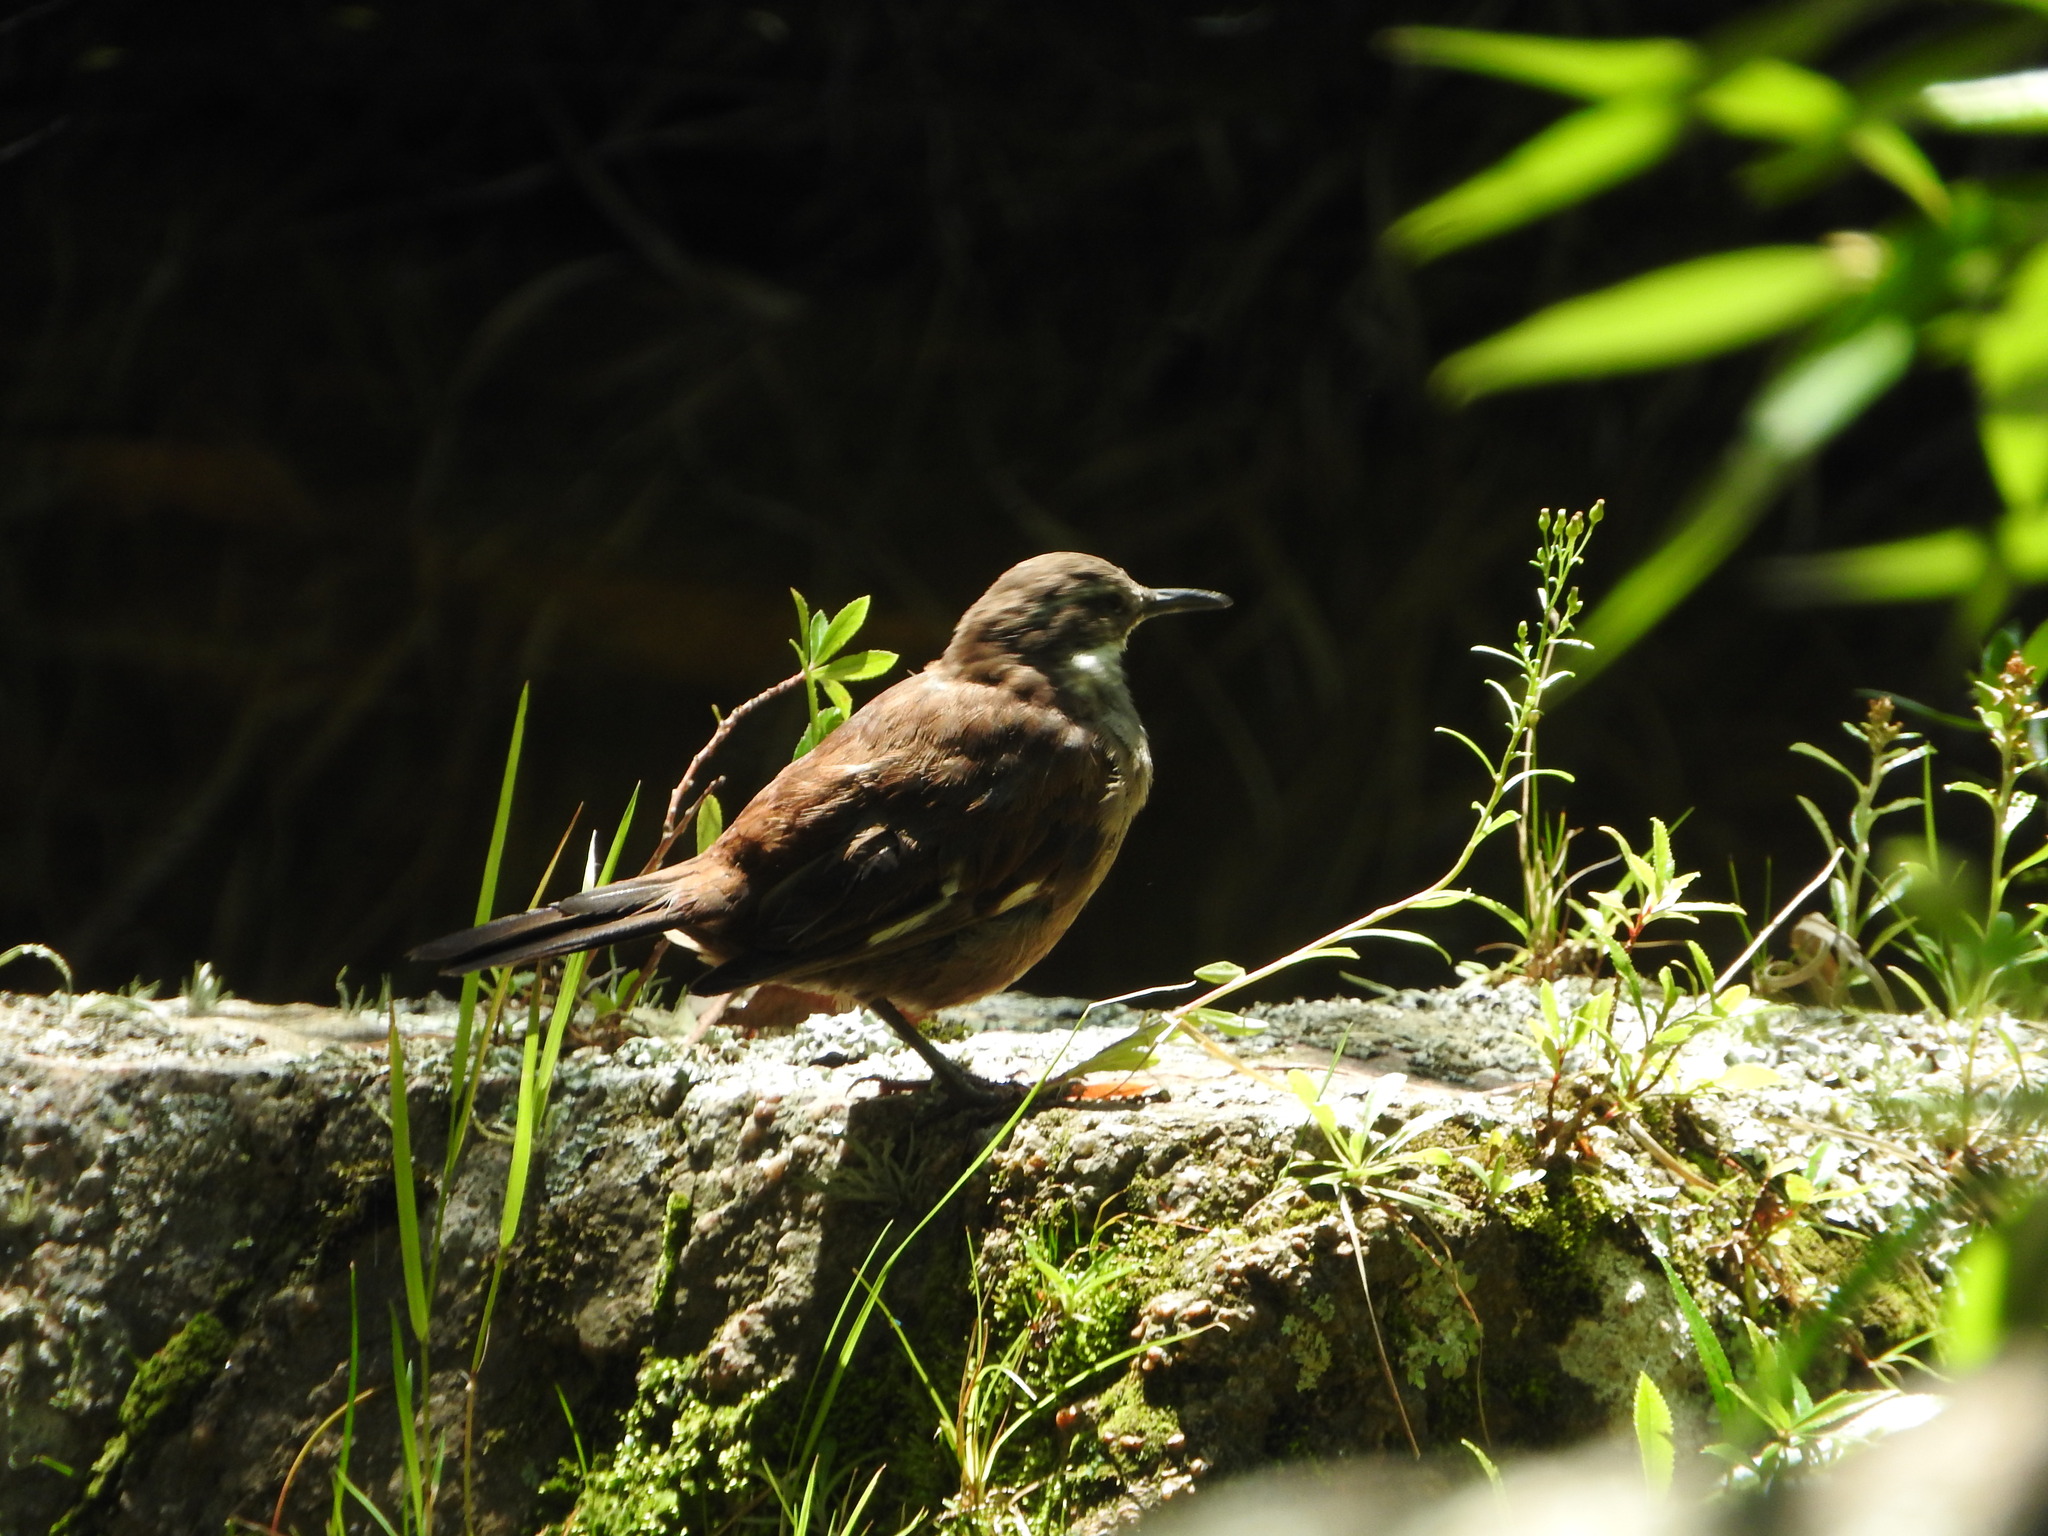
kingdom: Animalia
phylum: Chordata
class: Aves
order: Passeriformes
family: Furnariidae
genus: Cinclodes
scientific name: Cinclodes atacamensis
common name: White-winged cinclodes
